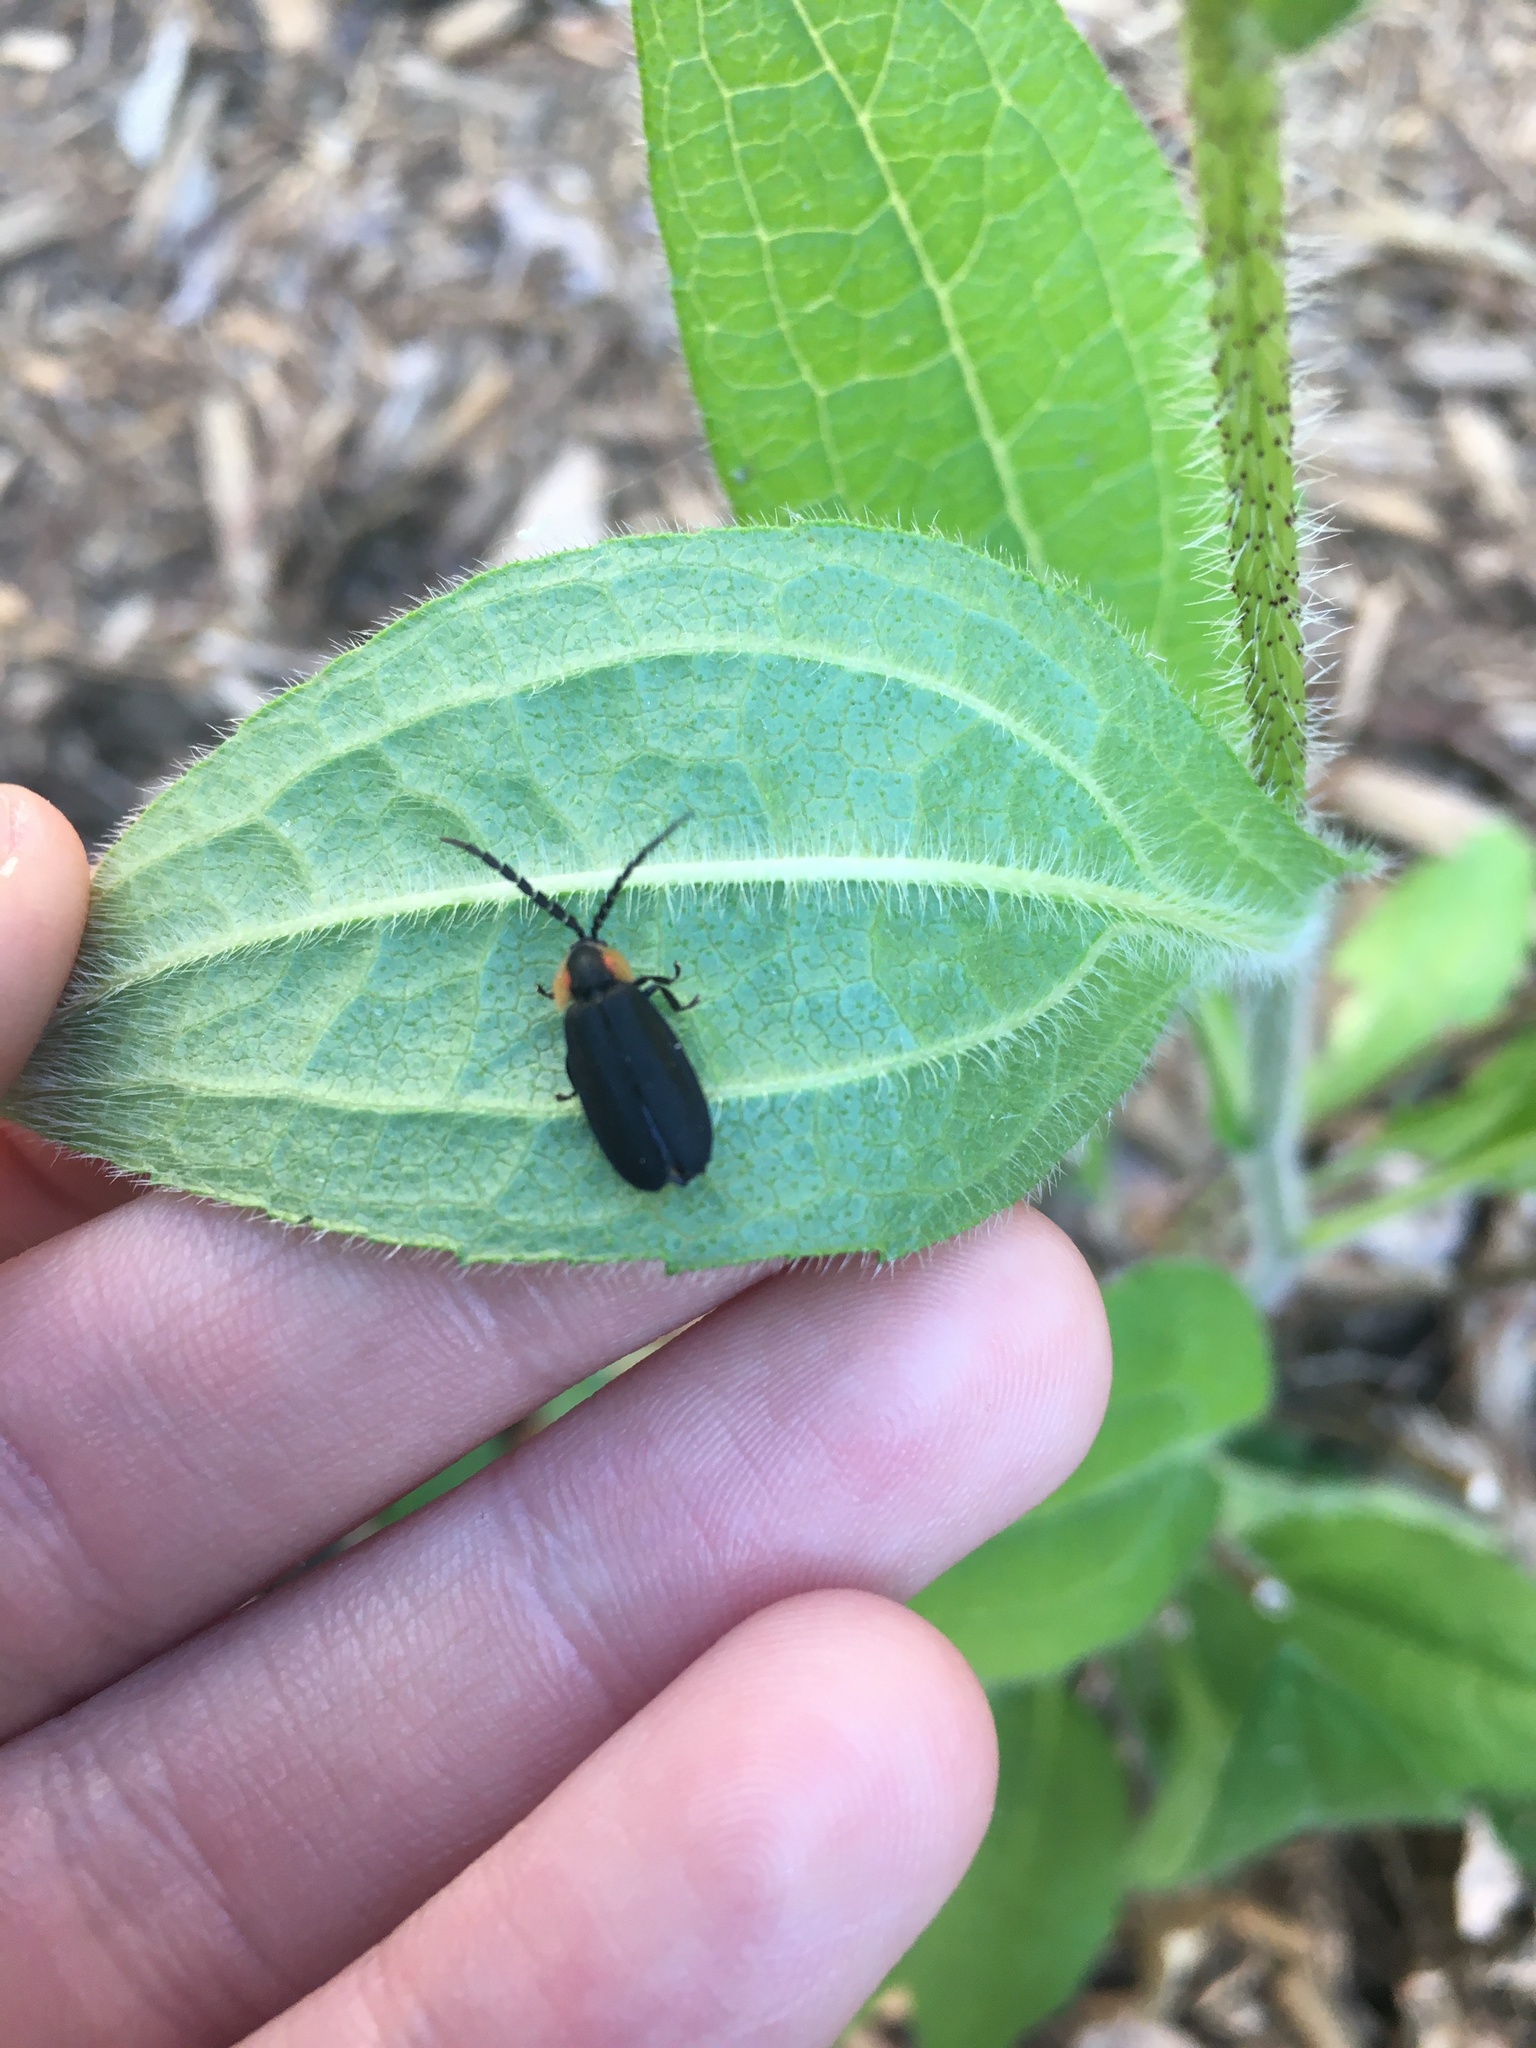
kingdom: Animalia
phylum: Arthropoda
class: Insecta
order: Coleoptera
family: Lampyridae
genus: Lucidota
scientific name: Lucidota atra
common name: Black firefly
